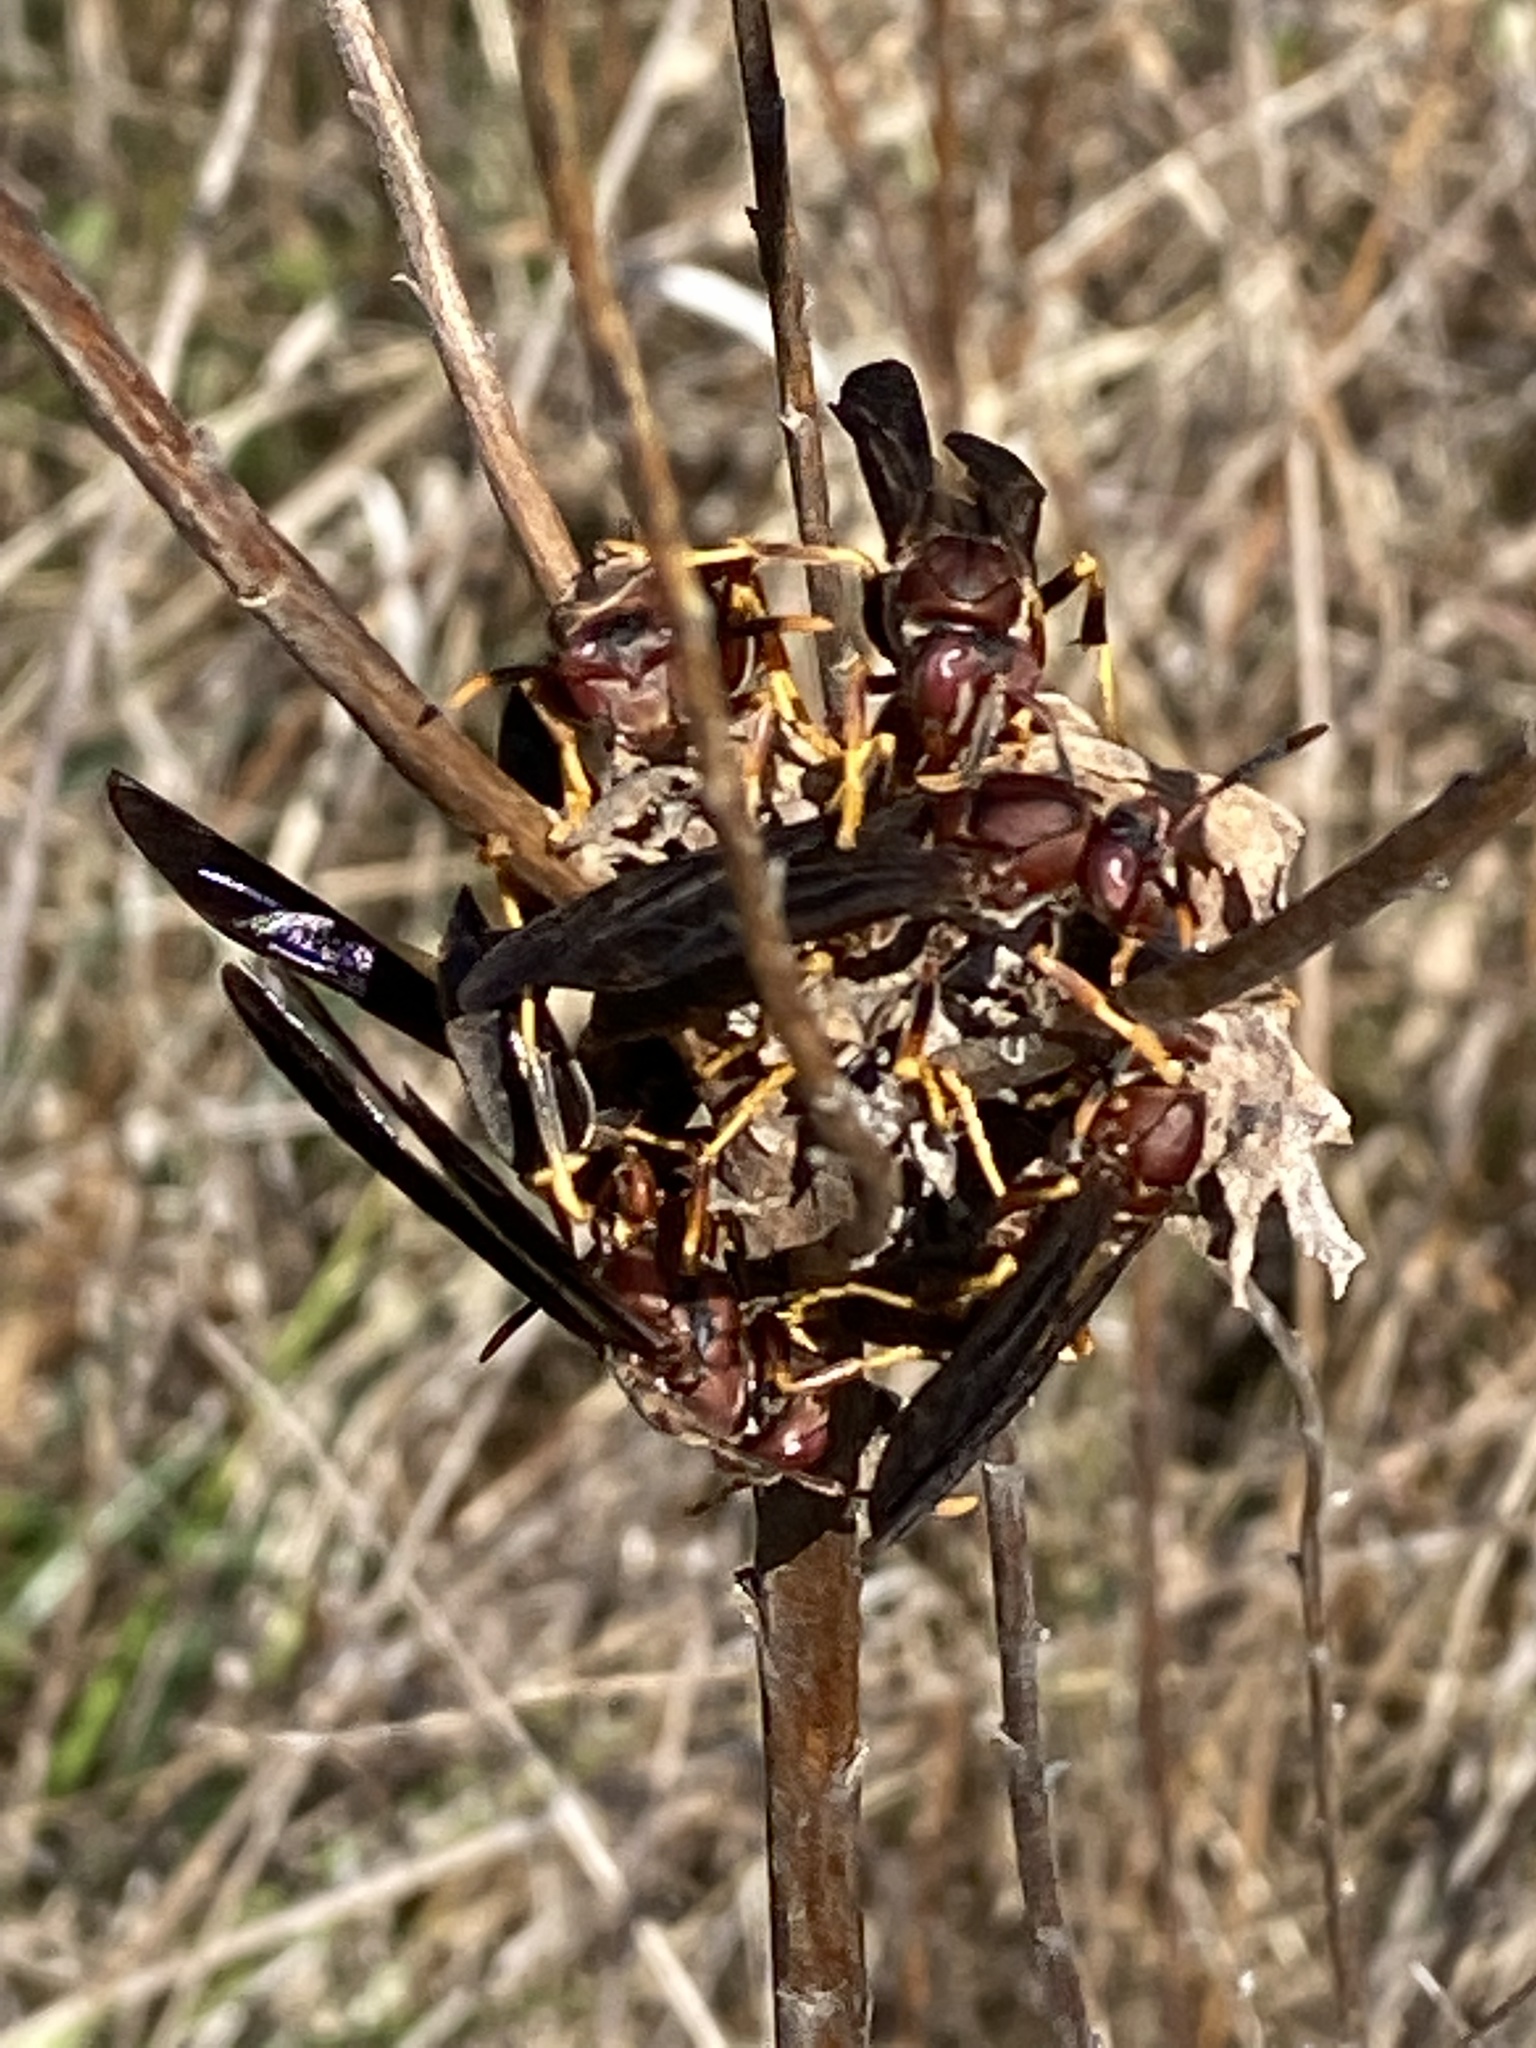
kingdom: Animalia
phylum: Arthropoda
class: Insecta
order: Hymenoptera
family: Eumenidae
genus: Polistes
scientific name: Polistes annularis
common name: Ringed paper wasp
